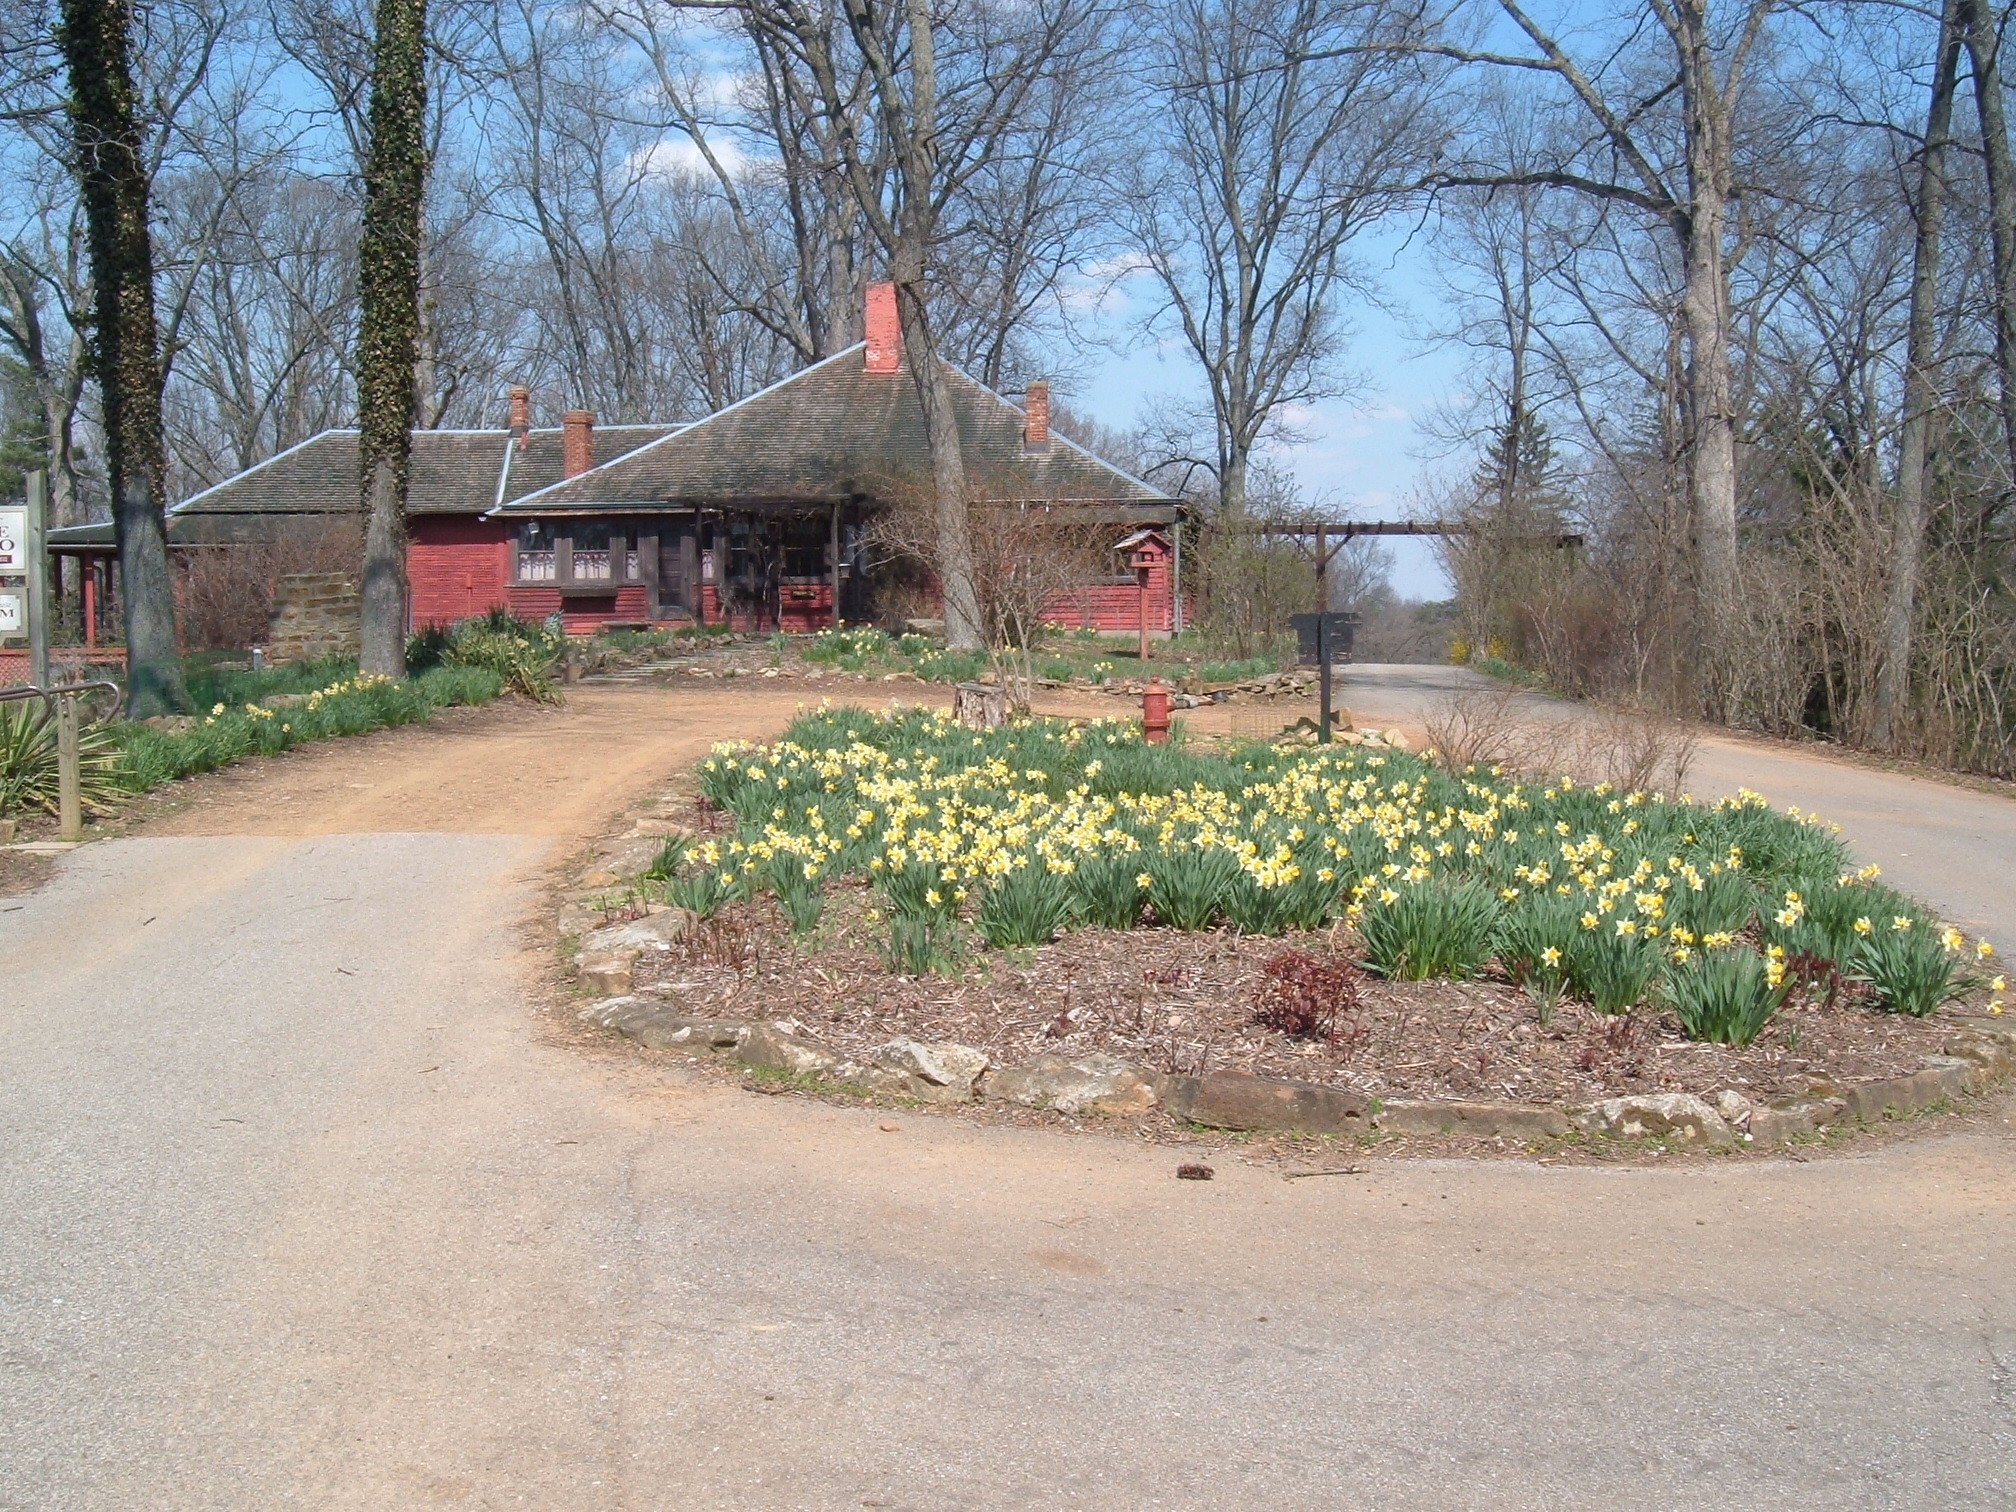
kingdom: Plantae
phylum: Tracheophyta
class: Liliopsida
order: Asparagales
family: Amaryllidaceae
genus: Narcissus
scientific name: Narcissus pseudonarcissus
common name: Daffodil
